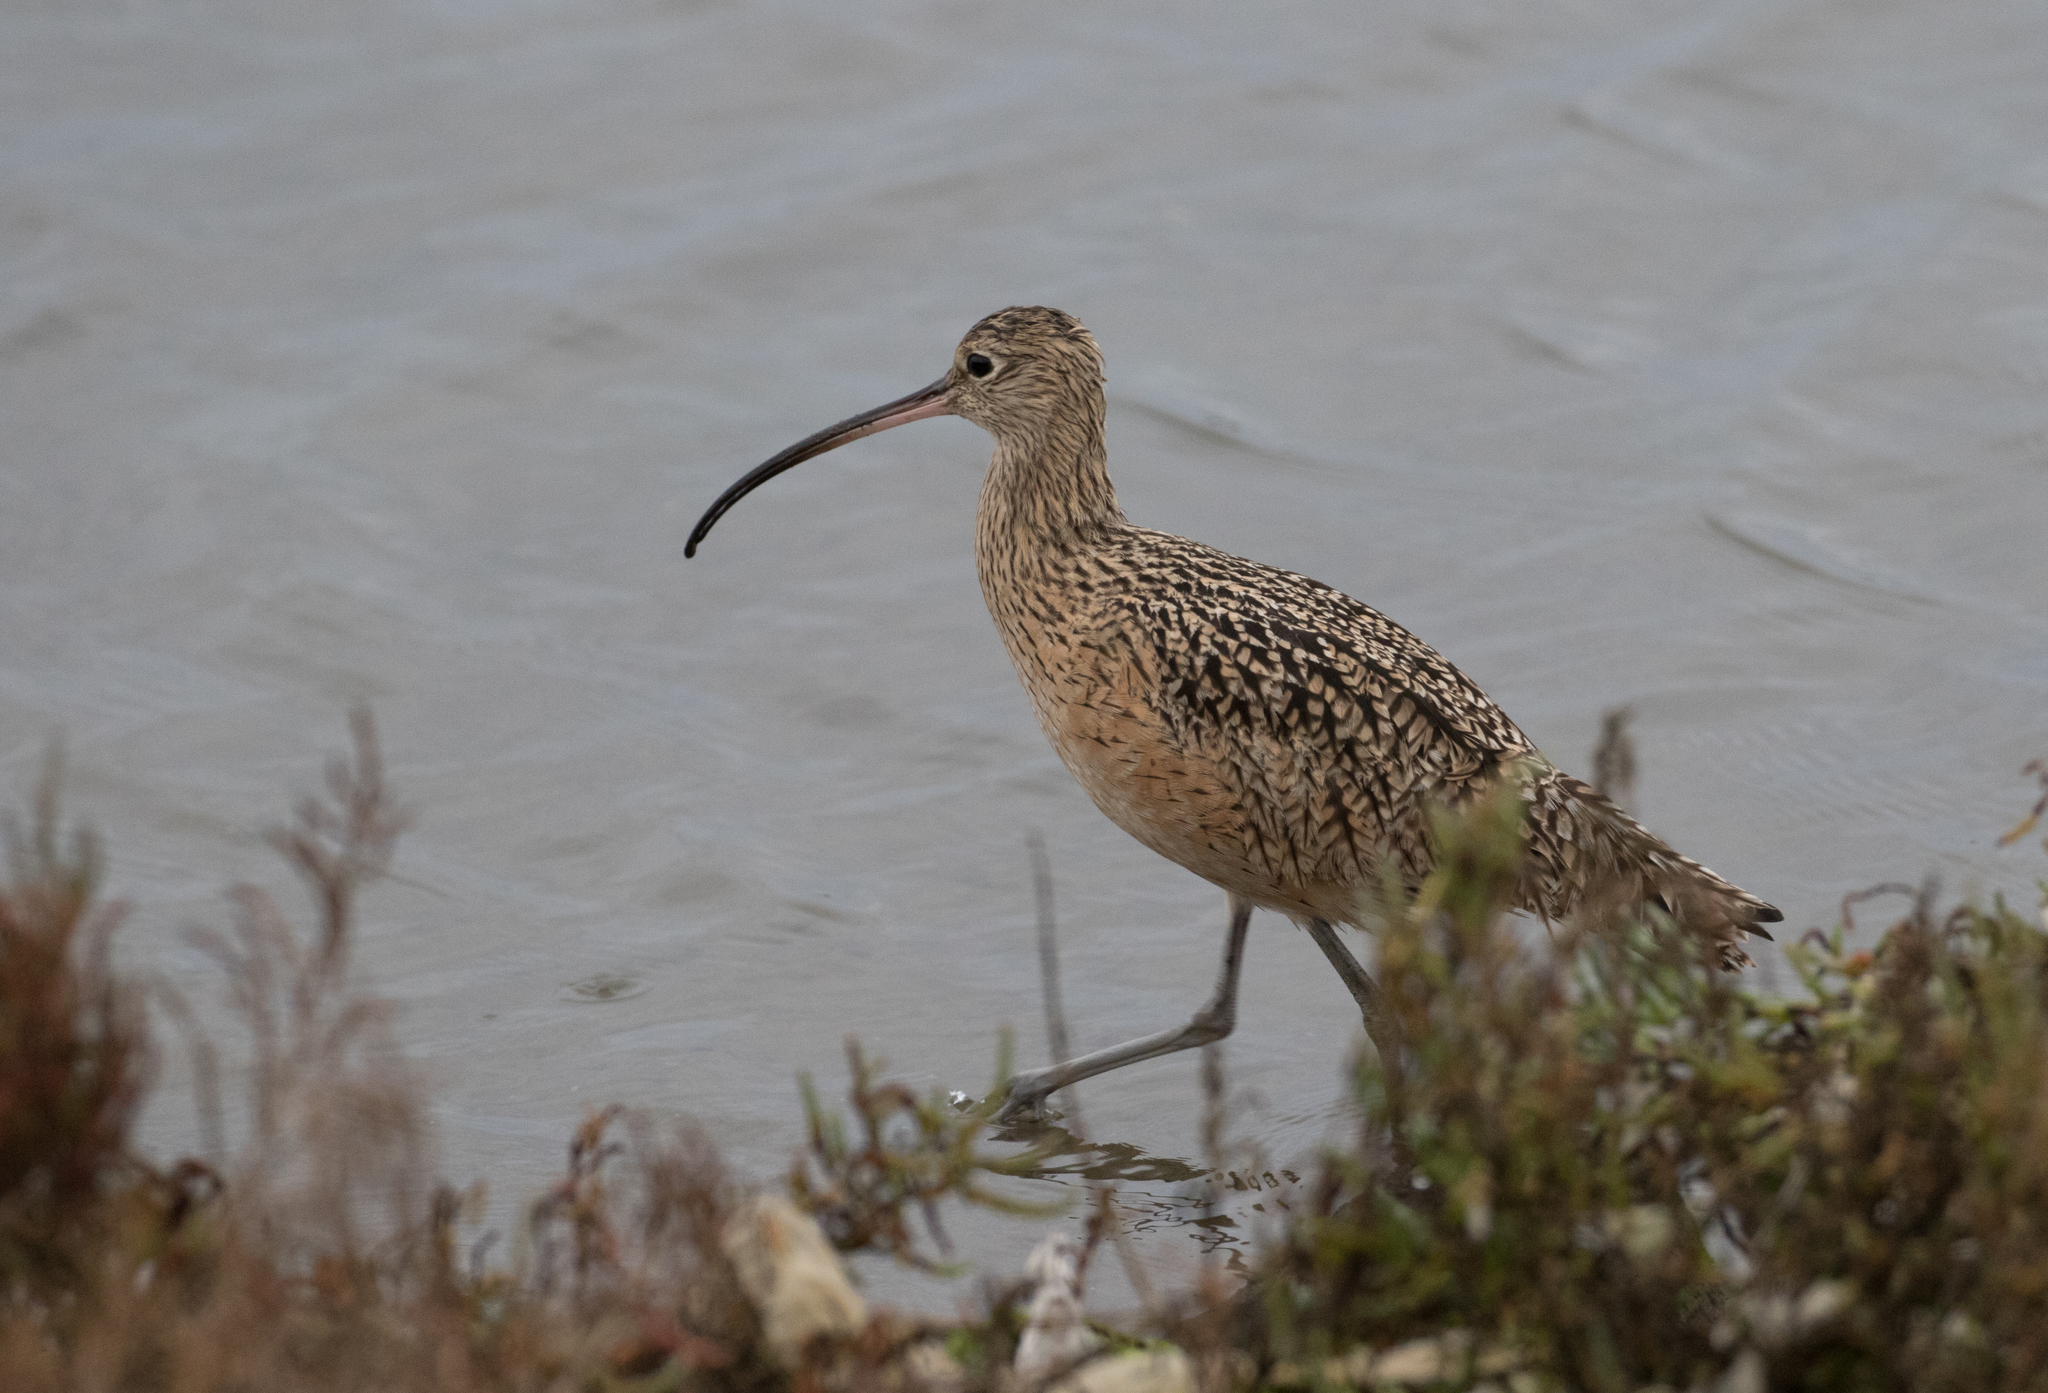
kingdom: Animalia
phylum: Chordata
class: Aves
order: Charadriiformes
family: Scolopacidae
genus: Numenius
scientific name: Numenius americanus
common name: Long-billed curlew
